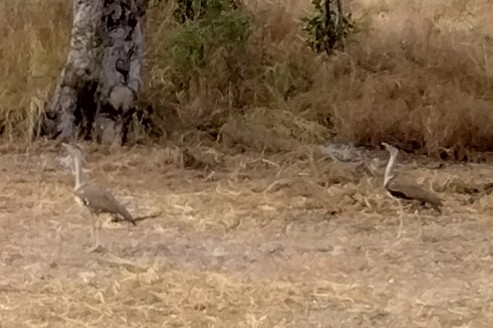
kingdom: Animalia
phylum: Chordata
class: Aves
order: Otidiformes
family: Otididae
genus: Ardeotis
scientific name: Ardeotis australis
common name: Australian bustard
